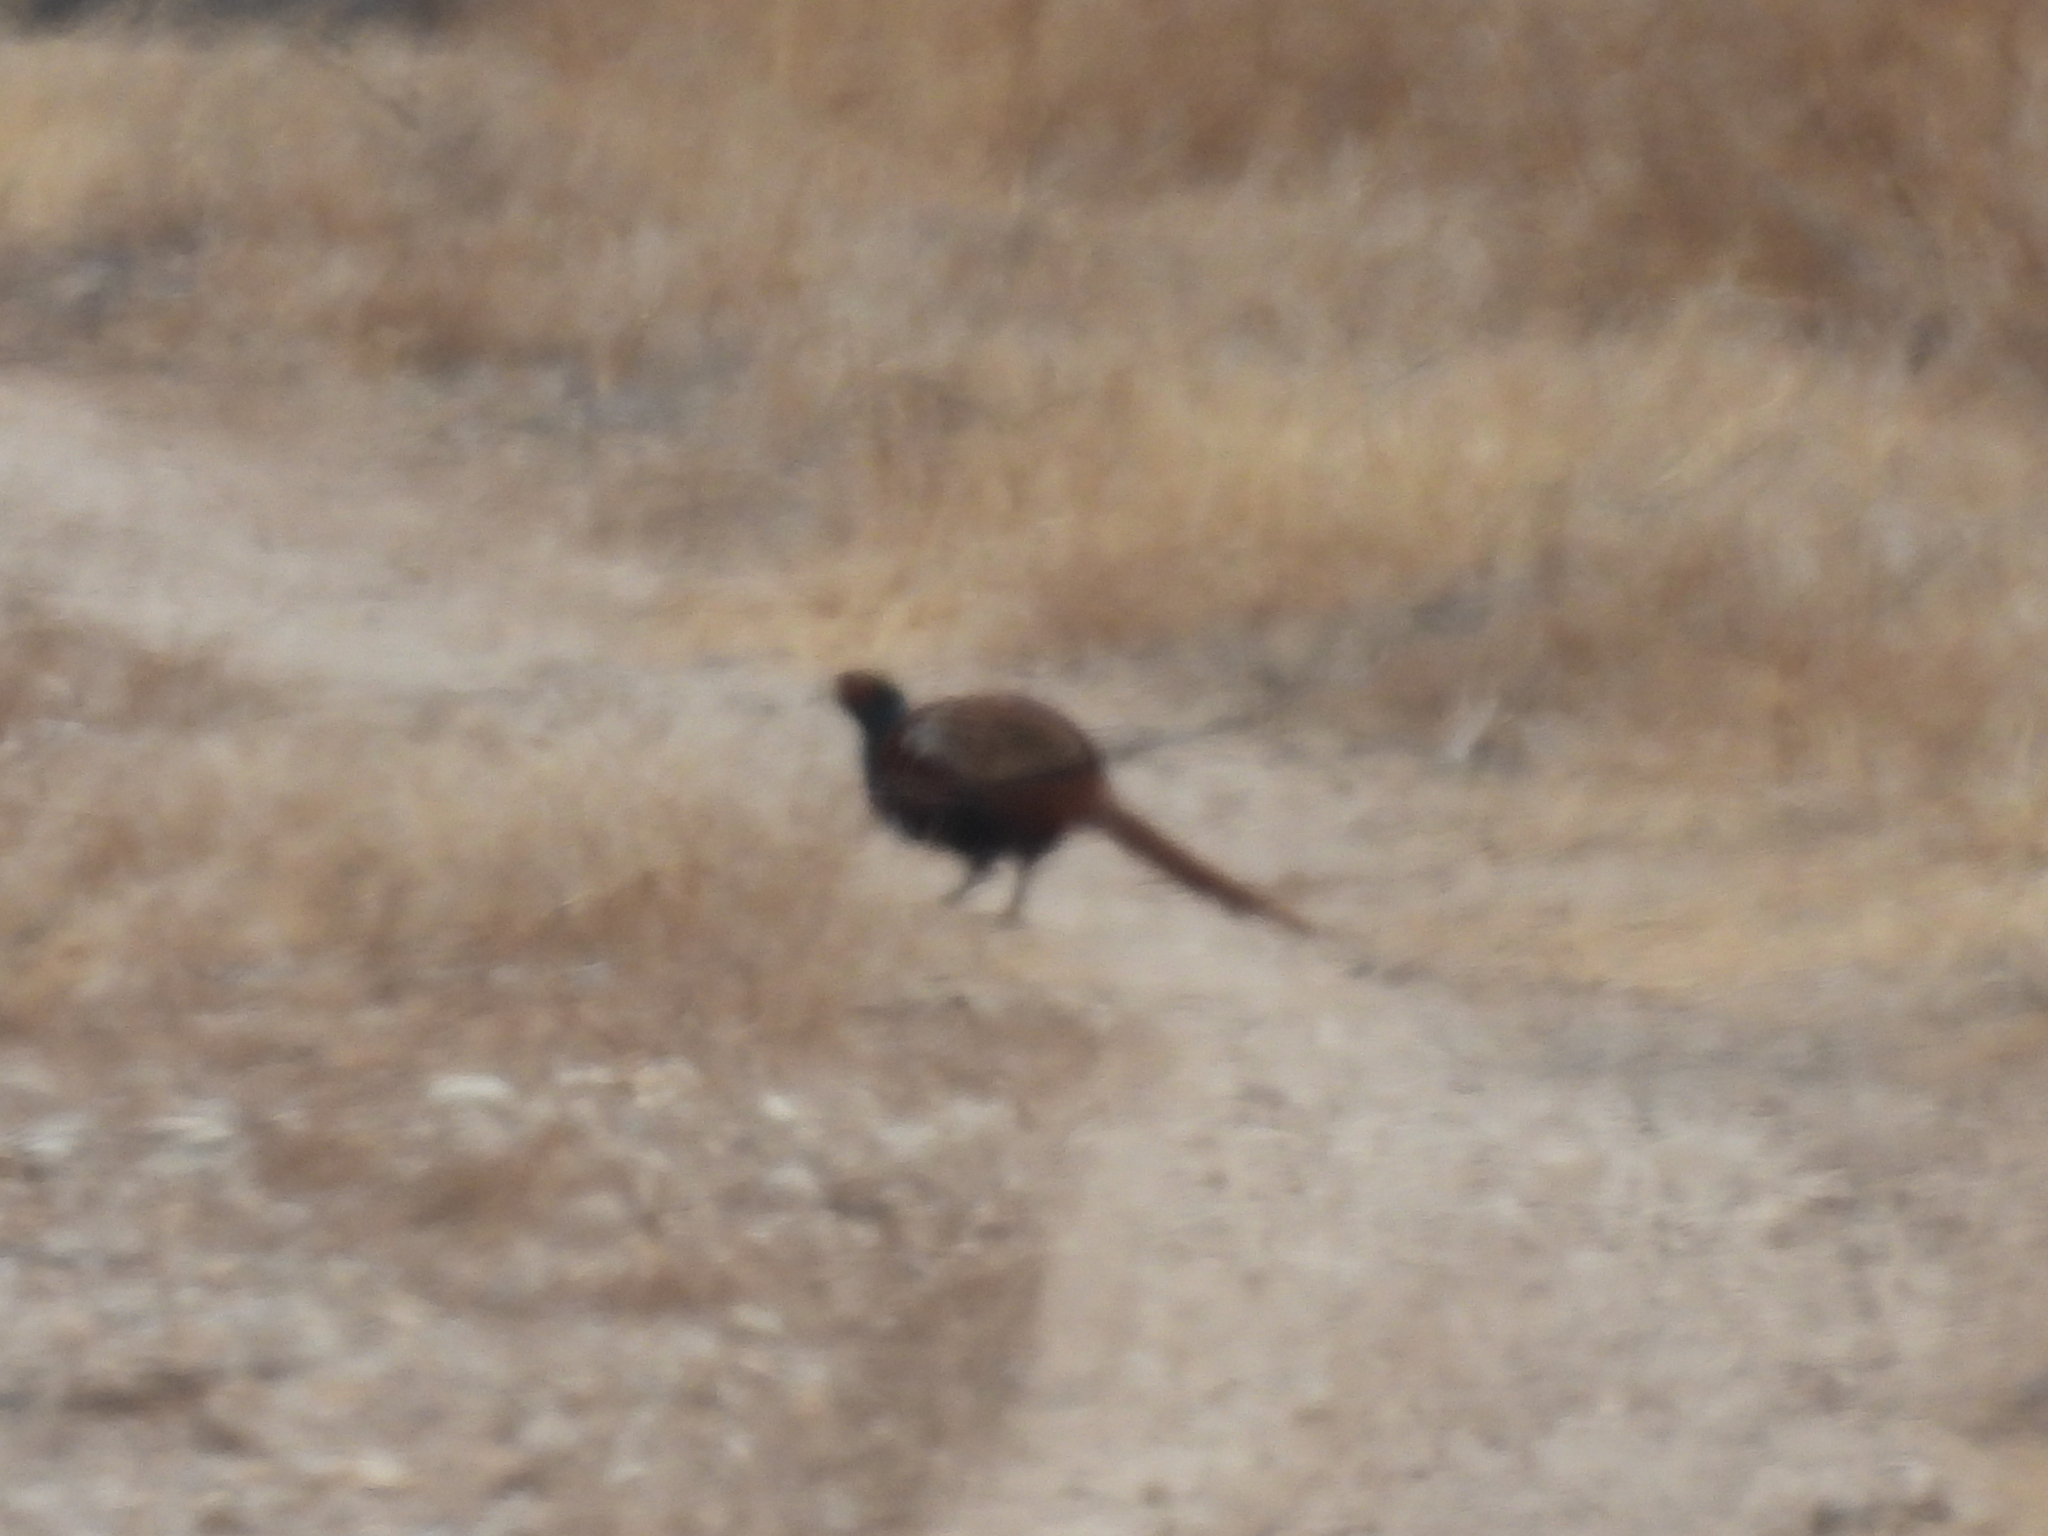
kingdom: Animalia
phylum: Chordata
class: Aves
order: Galliformes
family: Phasianidae
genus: Phasianus
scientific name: Phasianus colchicus
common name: Common pheasant
